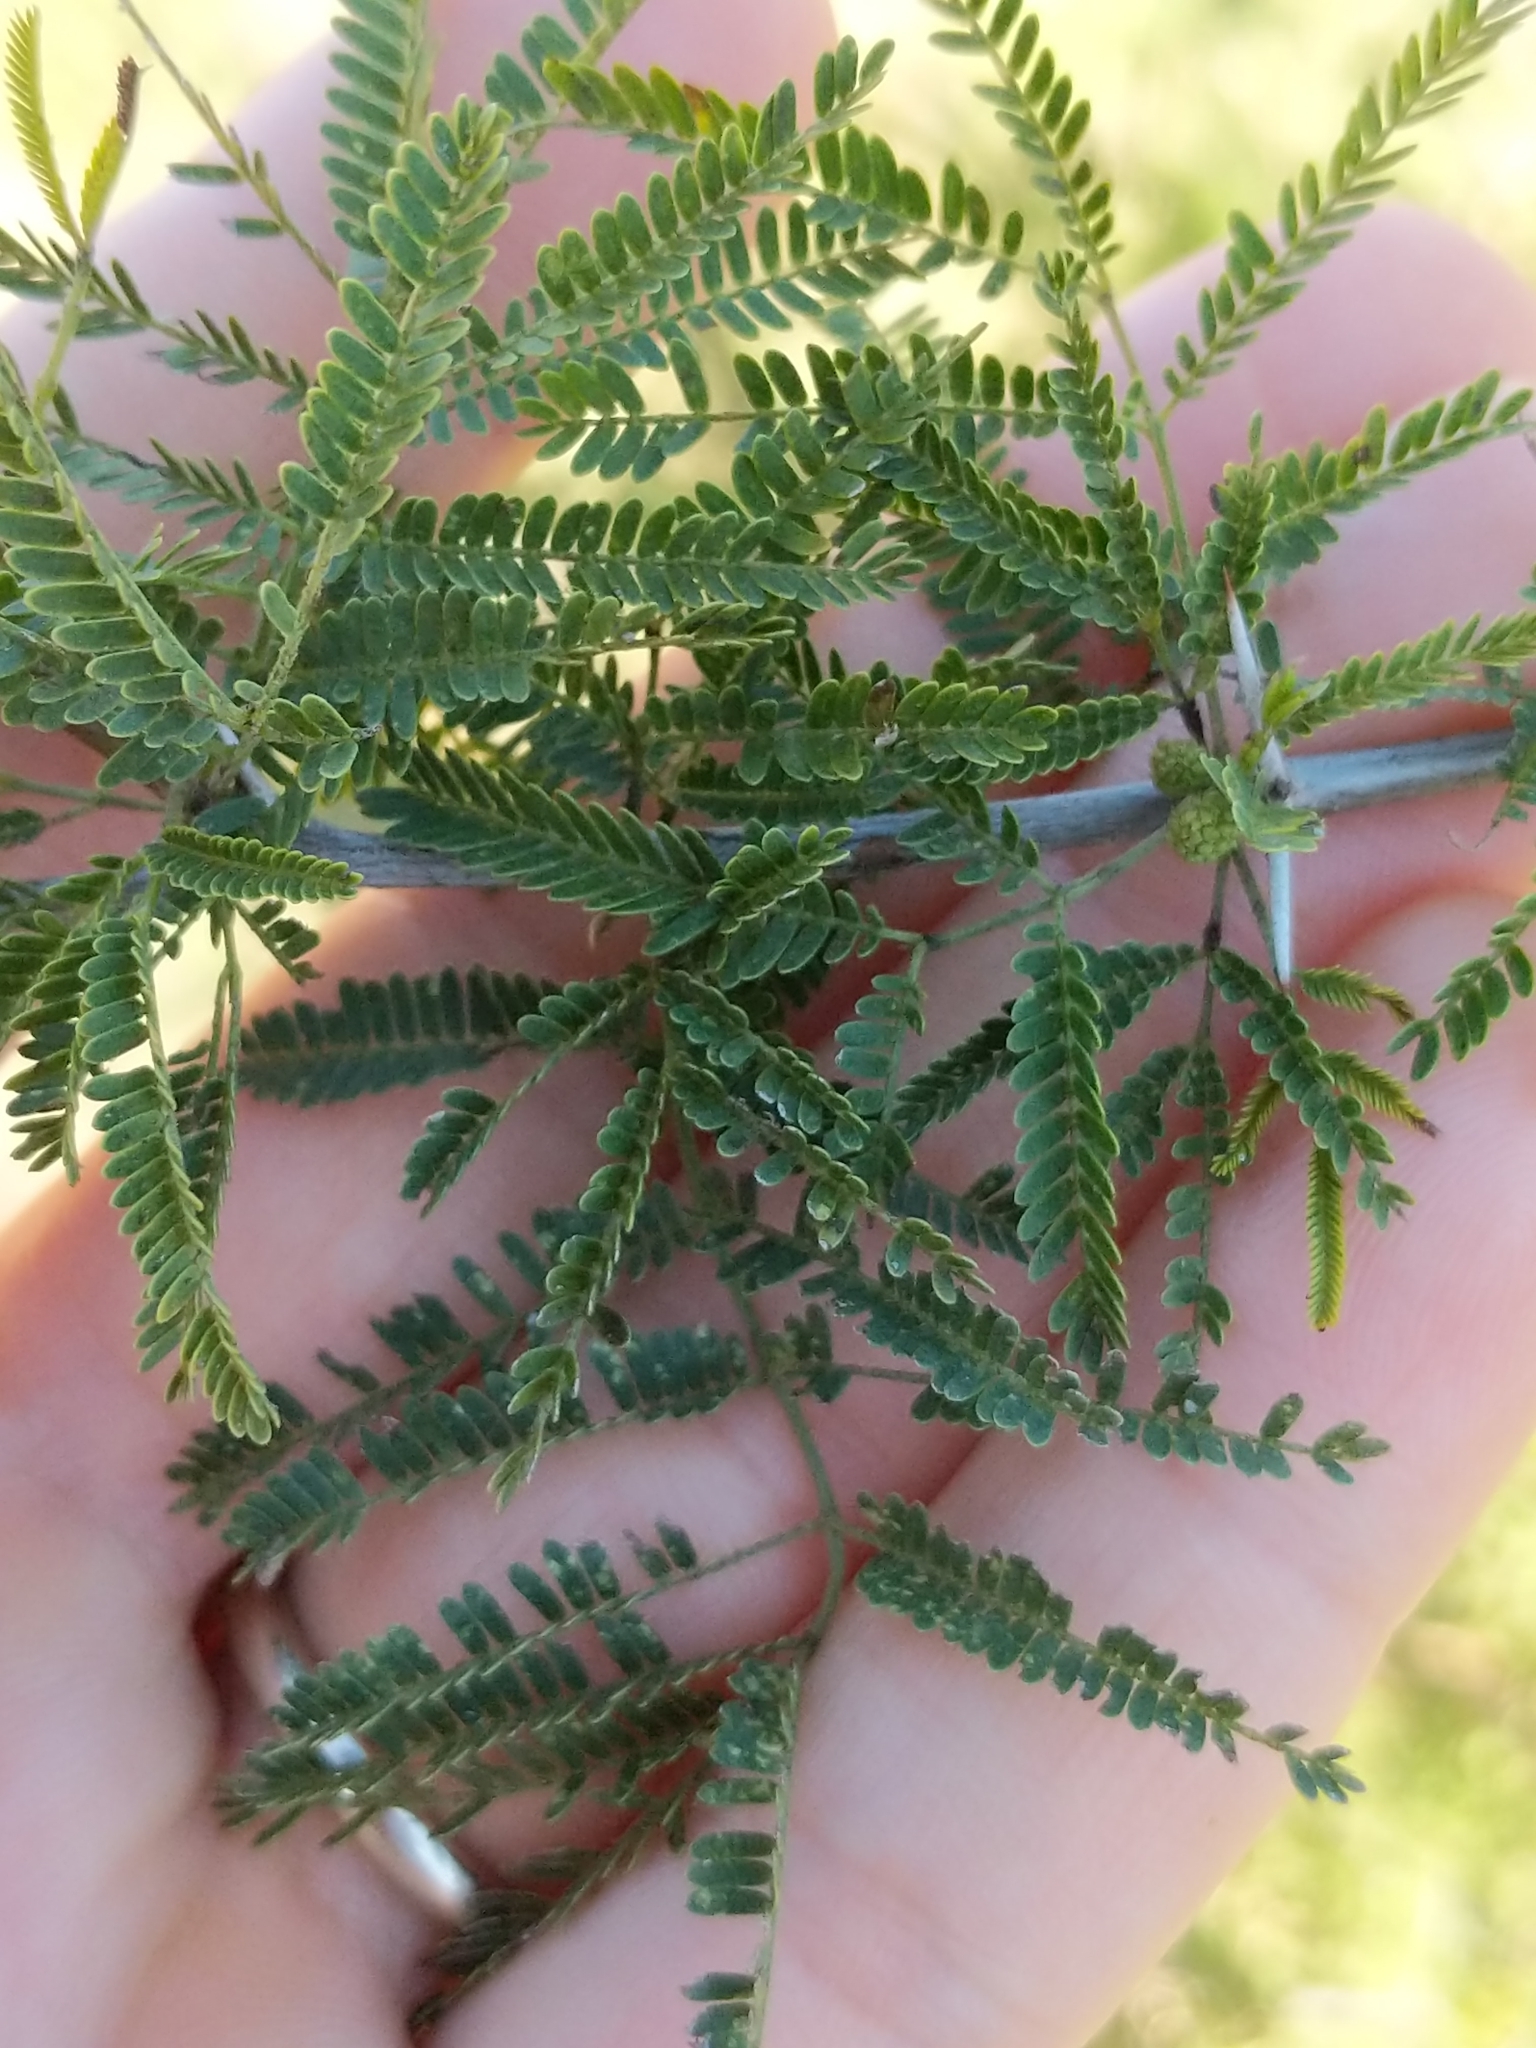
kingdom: Plantae
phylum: Tracheophyta
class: Magnoliopsida
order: Fabales
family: Fabaceae
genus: Vachellia
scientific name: Vachellia farnesiana
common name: Sweet acacia
